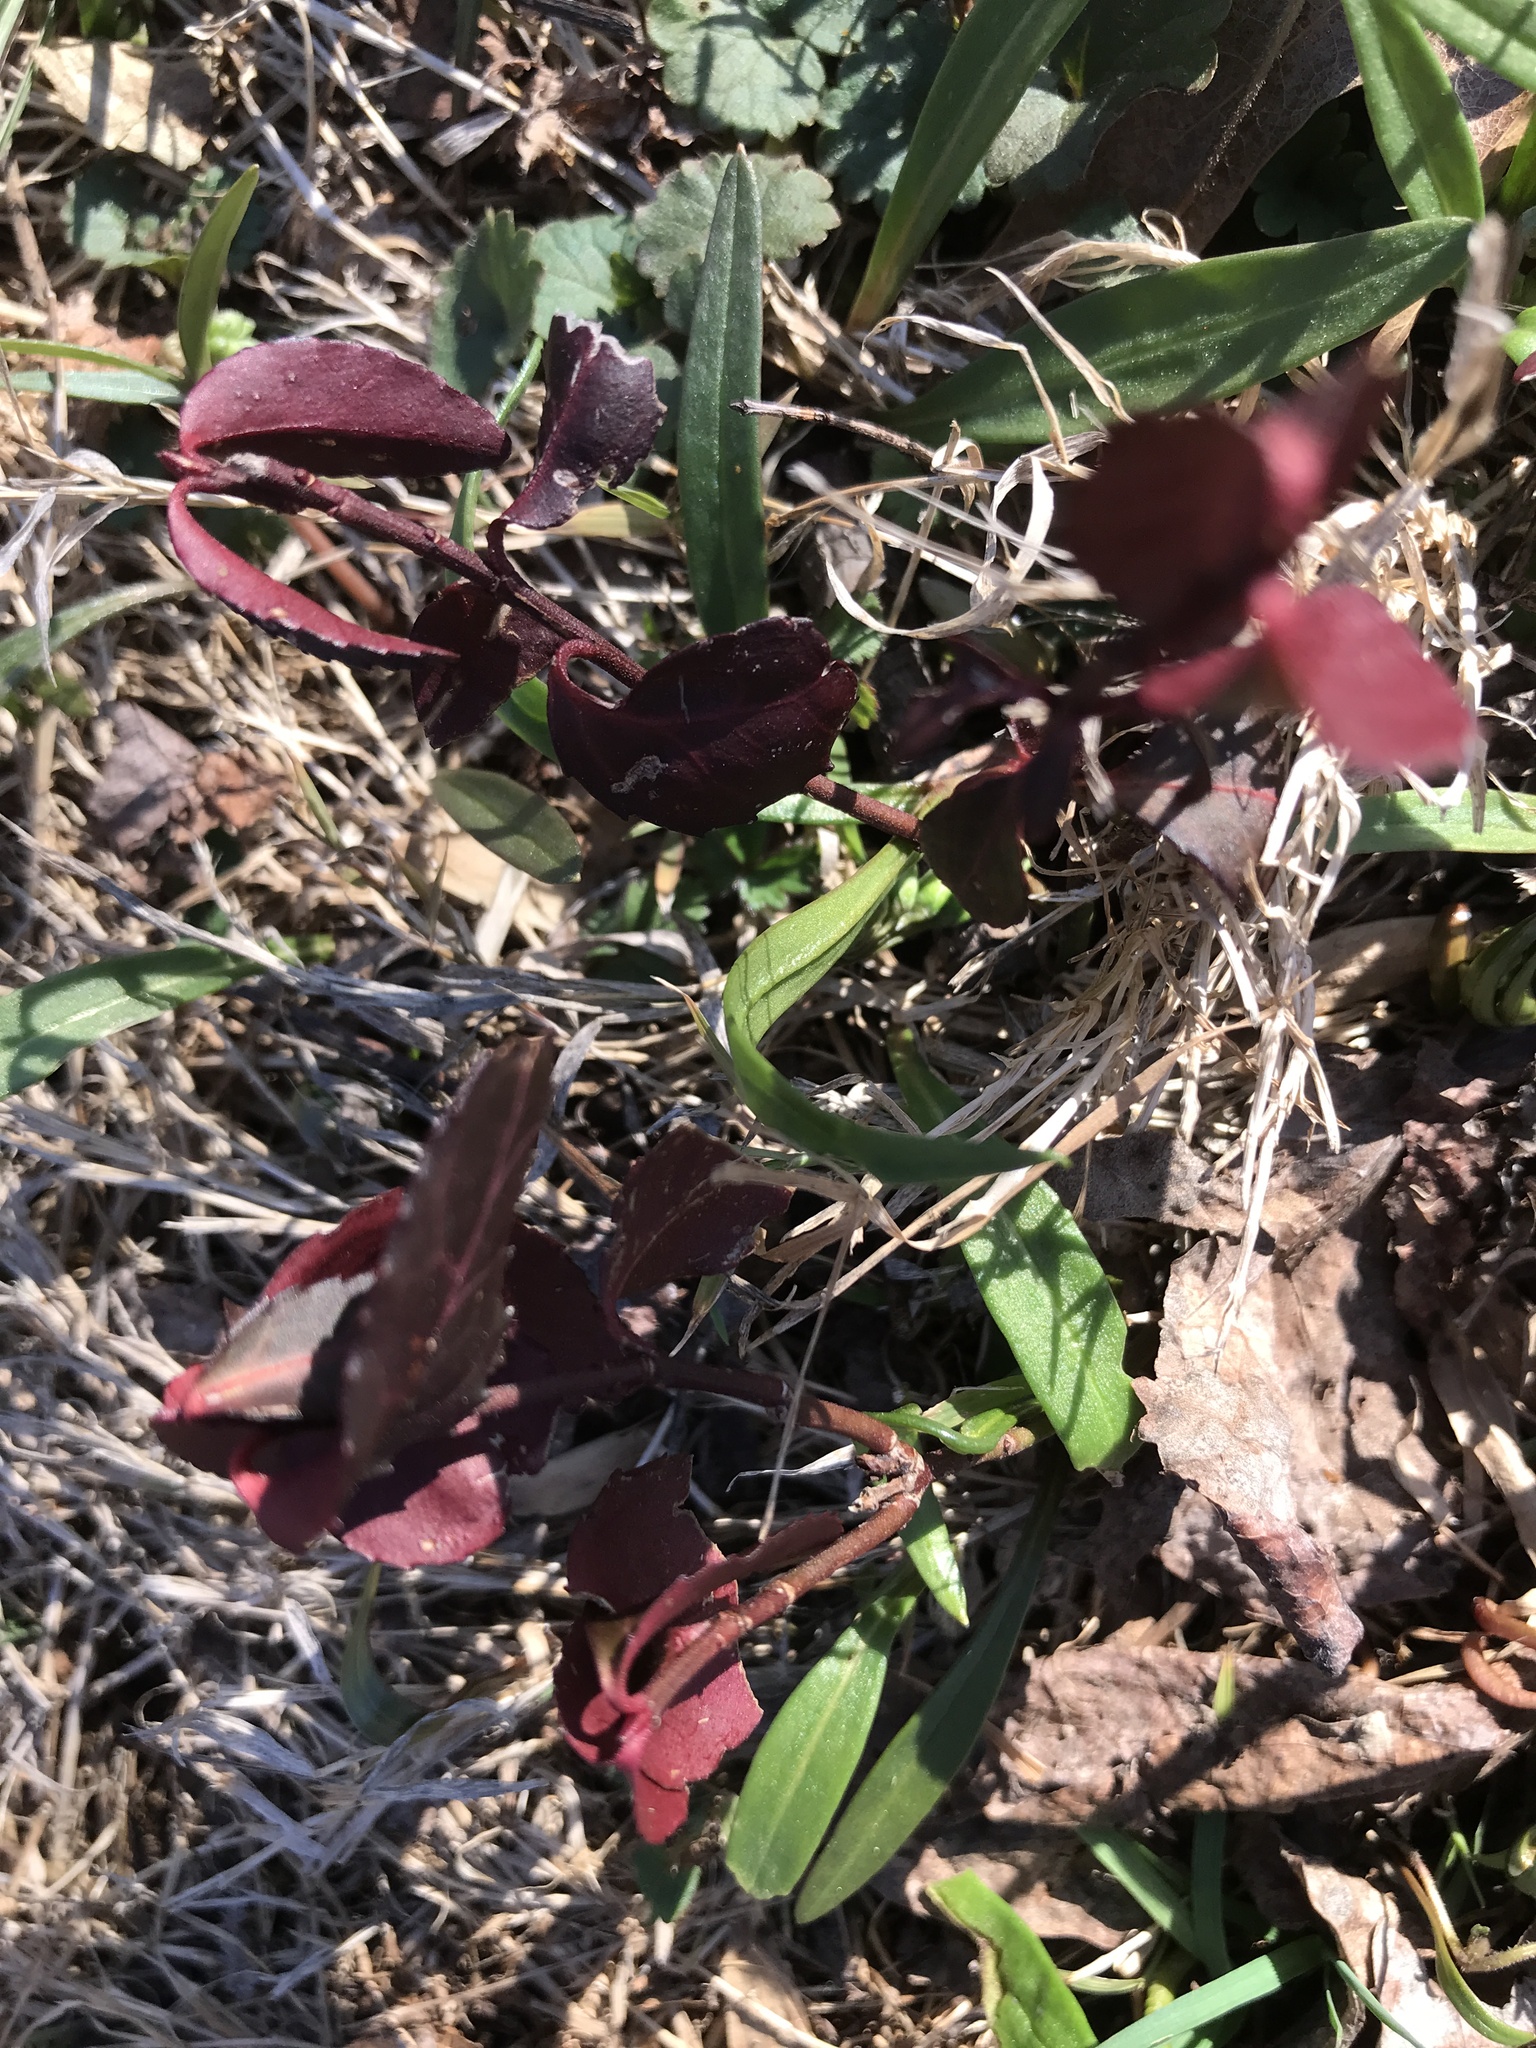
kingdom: Plantae
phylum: Tracheophyta
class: Magnoliopsida
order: Celastrales
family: Celastraceae
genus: Euonymus
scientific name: Euonymus fortunei
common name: Climbing euonymus
